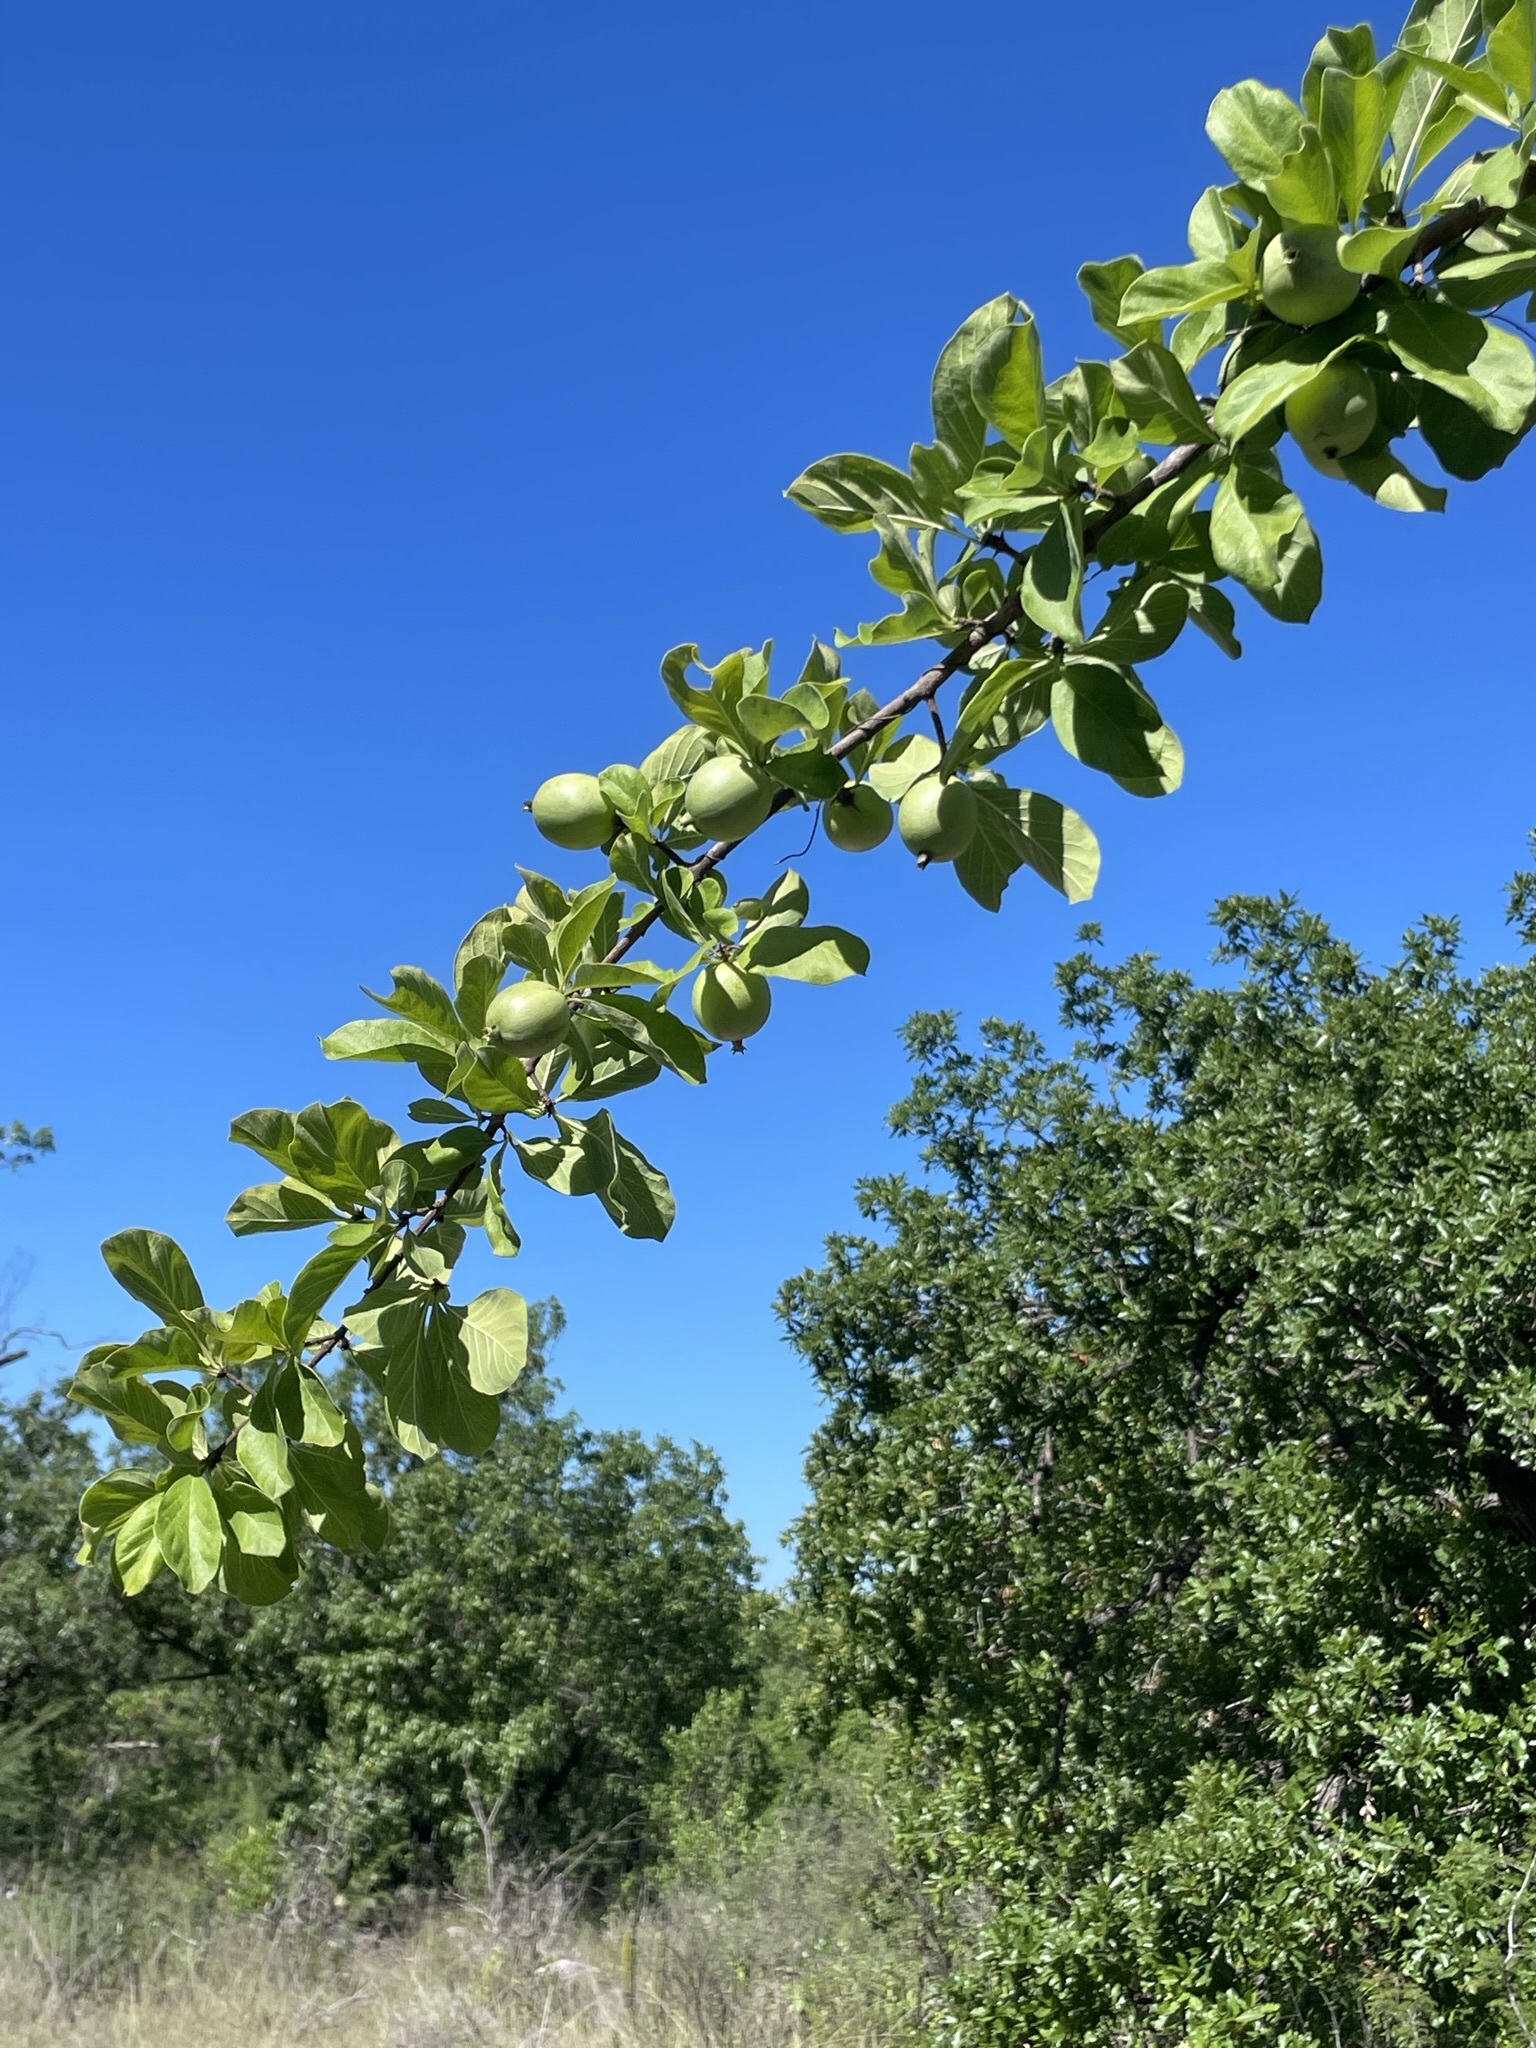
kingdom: Plantae
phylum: Tracheophyta
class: Magnoliopsida
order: Gentianales
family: Rubiaceae
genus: Randia
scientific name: Randia capitata
